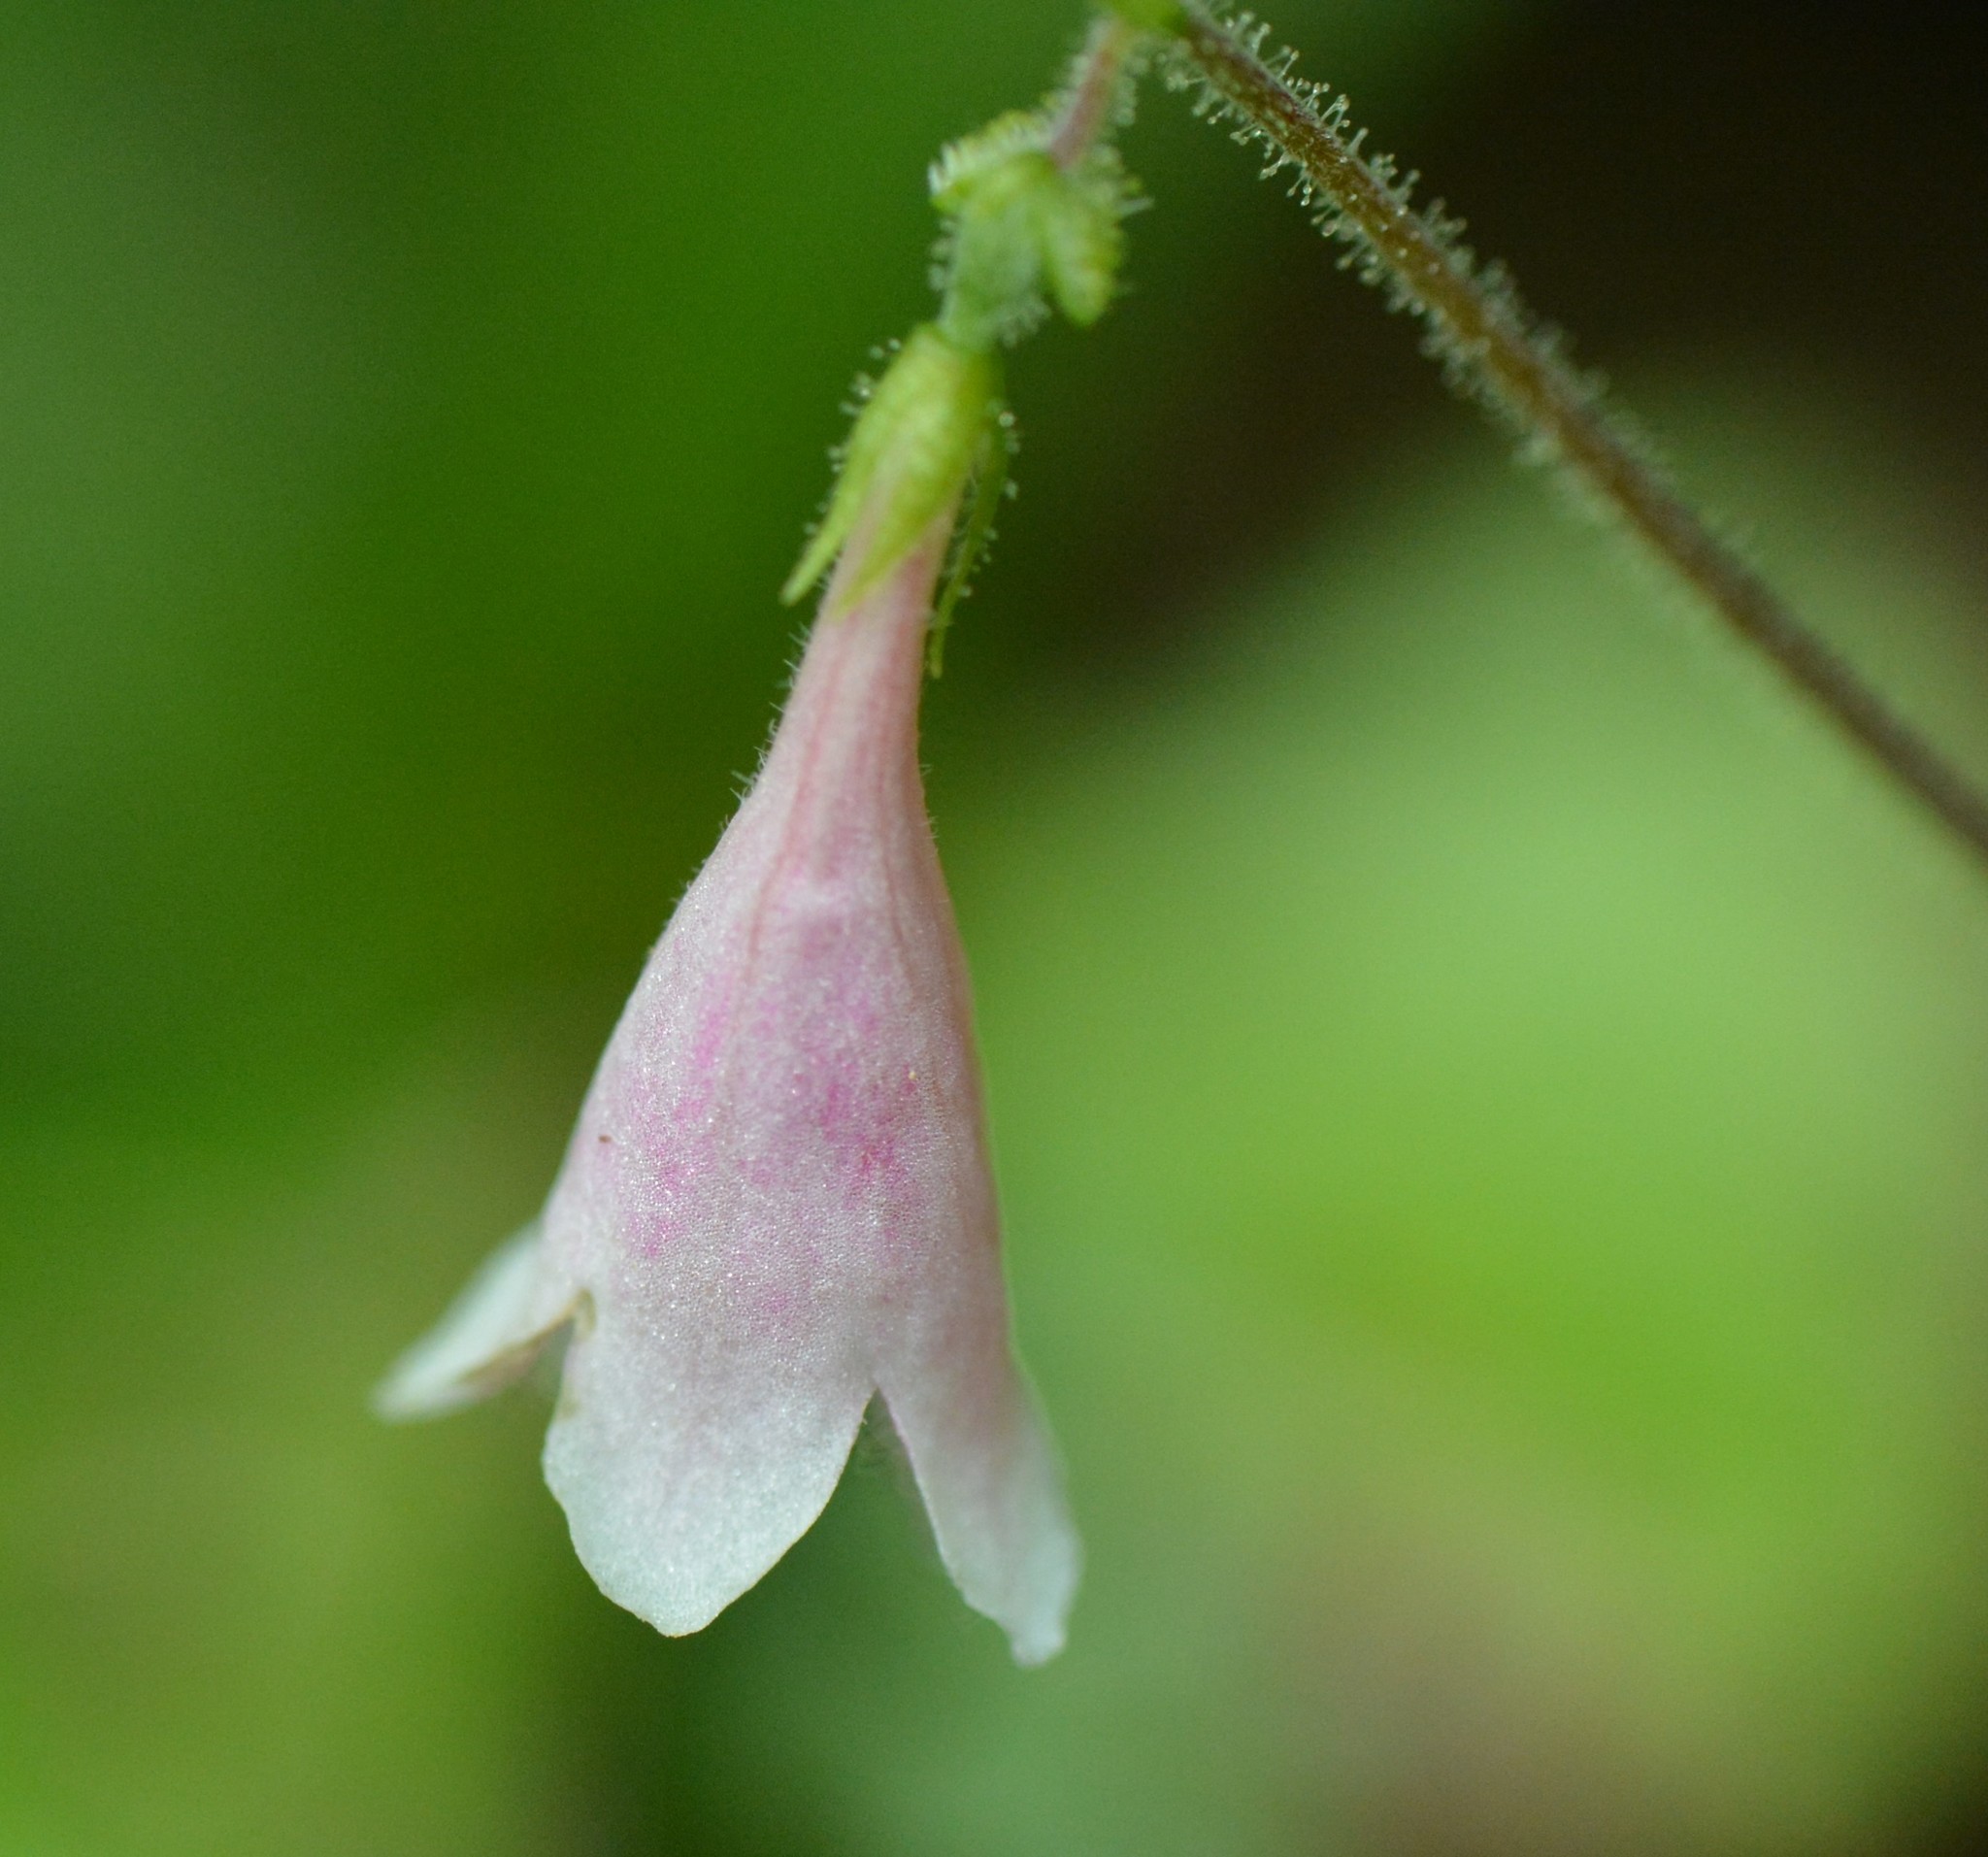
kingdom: Plantae
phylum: Tracheophyta
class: Magnoliopsida
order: Dipsacales
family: Caprifoliaceae
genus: Linnaea
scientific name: Linnaea borealis
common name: Twinflower
